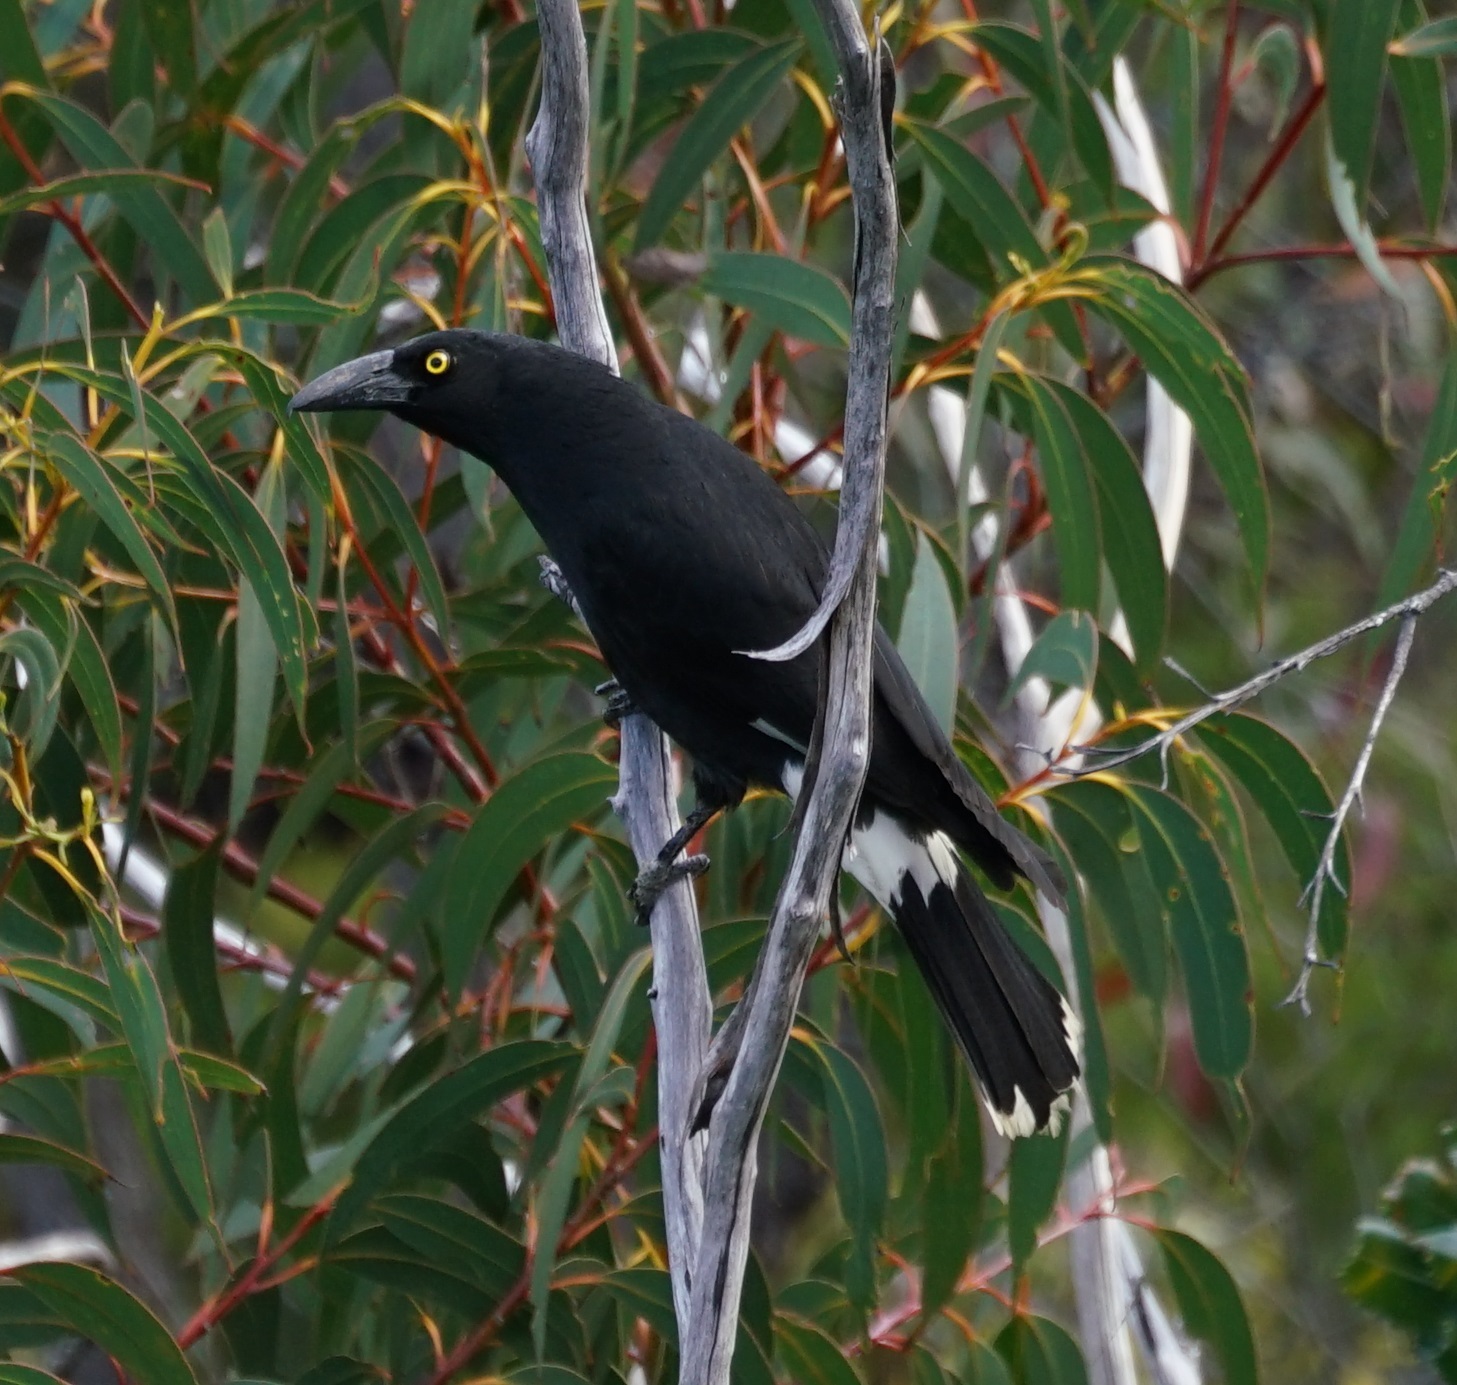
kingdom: Animalia
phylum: Chordata
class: Aves
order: Passeriformes
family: Cracticidae
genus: Strepera
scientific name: Strepera graculina
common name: Pied currawong
